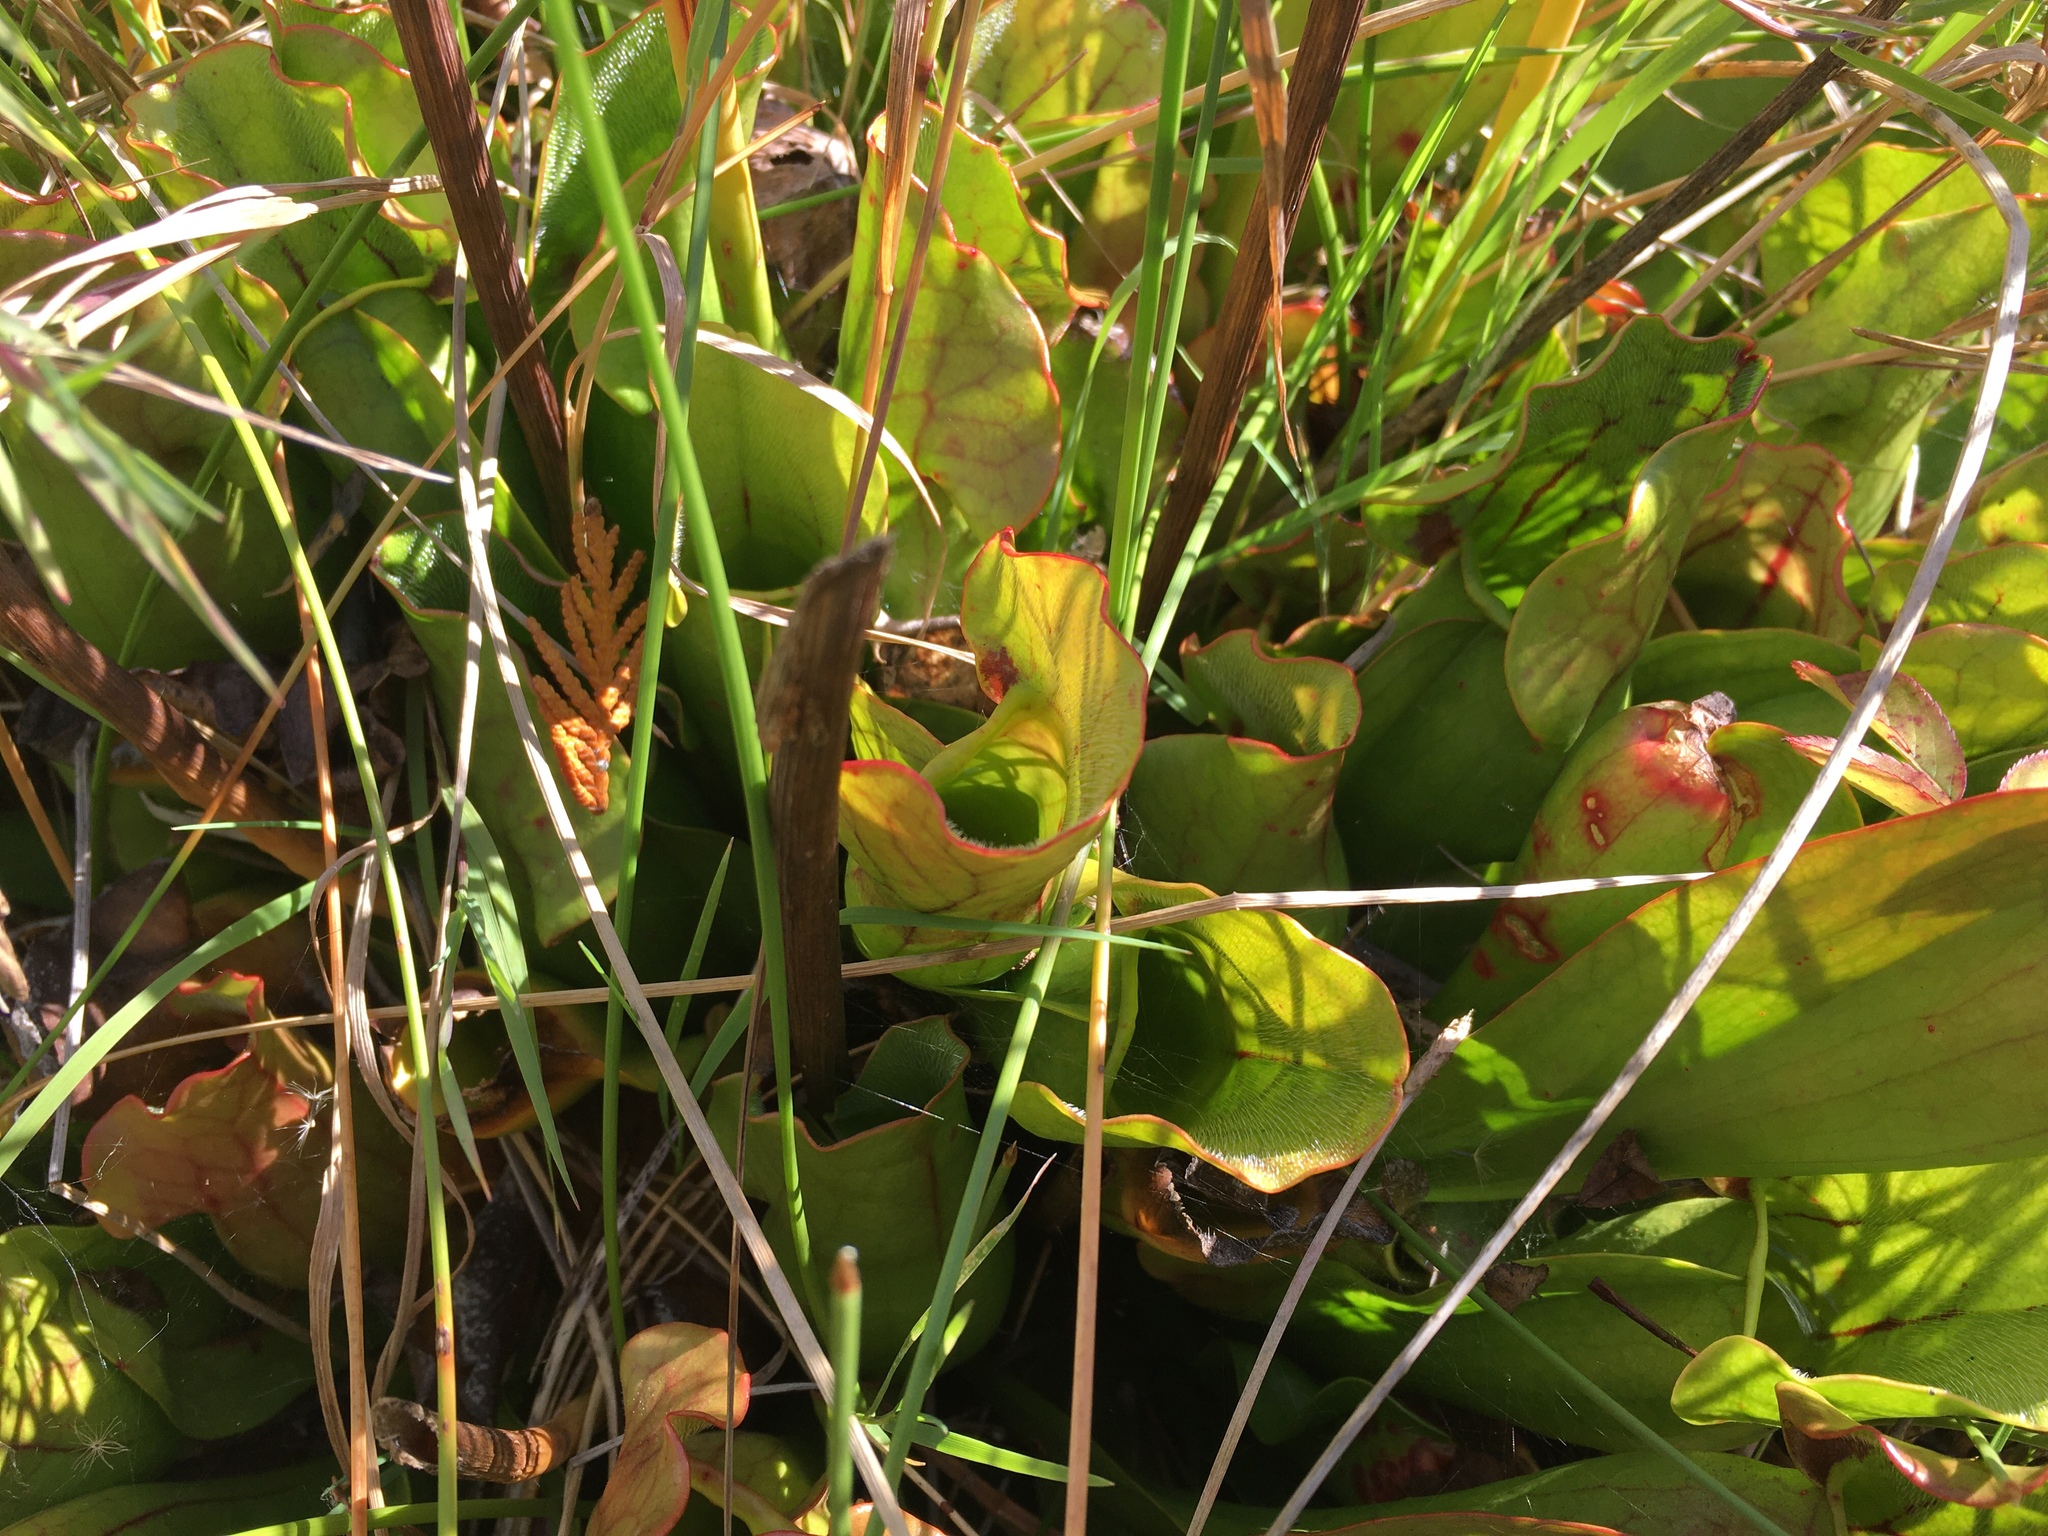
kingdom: Plantae
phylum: Tracheophyta
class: Magnoliopsida
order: Ericales
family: Sarraceniaceae
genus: Sarracenia
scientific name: Sarracenia purpurea
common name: Pitcherplant
